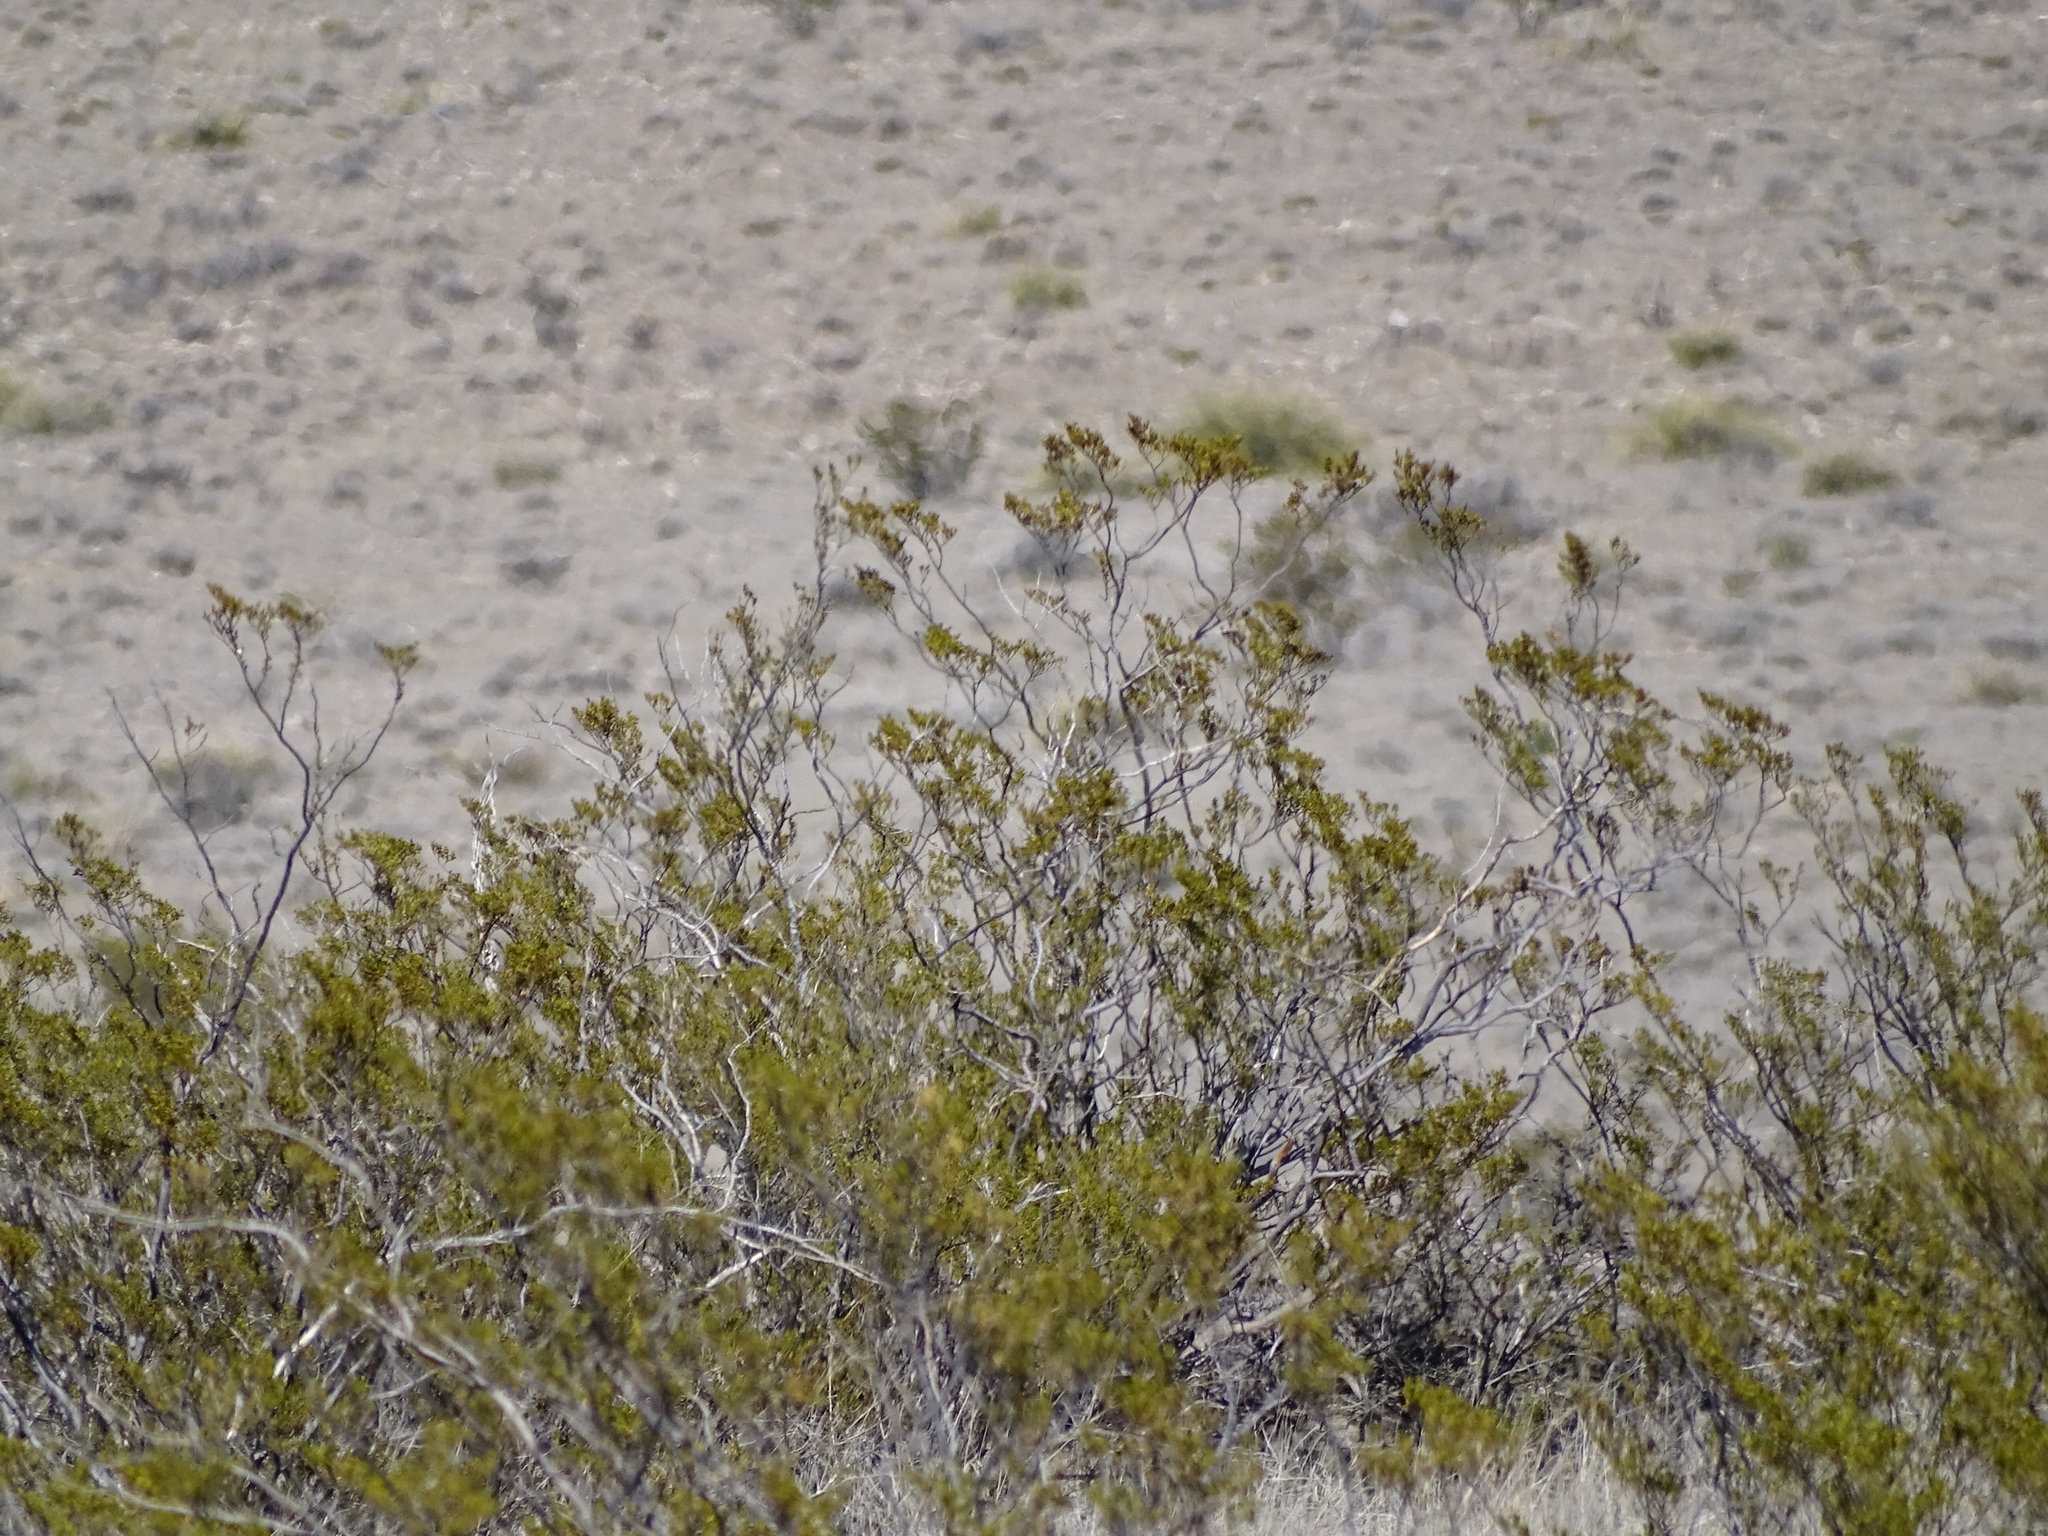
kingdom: Plantae
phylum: Tracheophyta
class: Magnoliopsida
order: Zygophyllales
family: Zygophyllaceae
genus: Larrea
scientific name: Larrea tridentata
